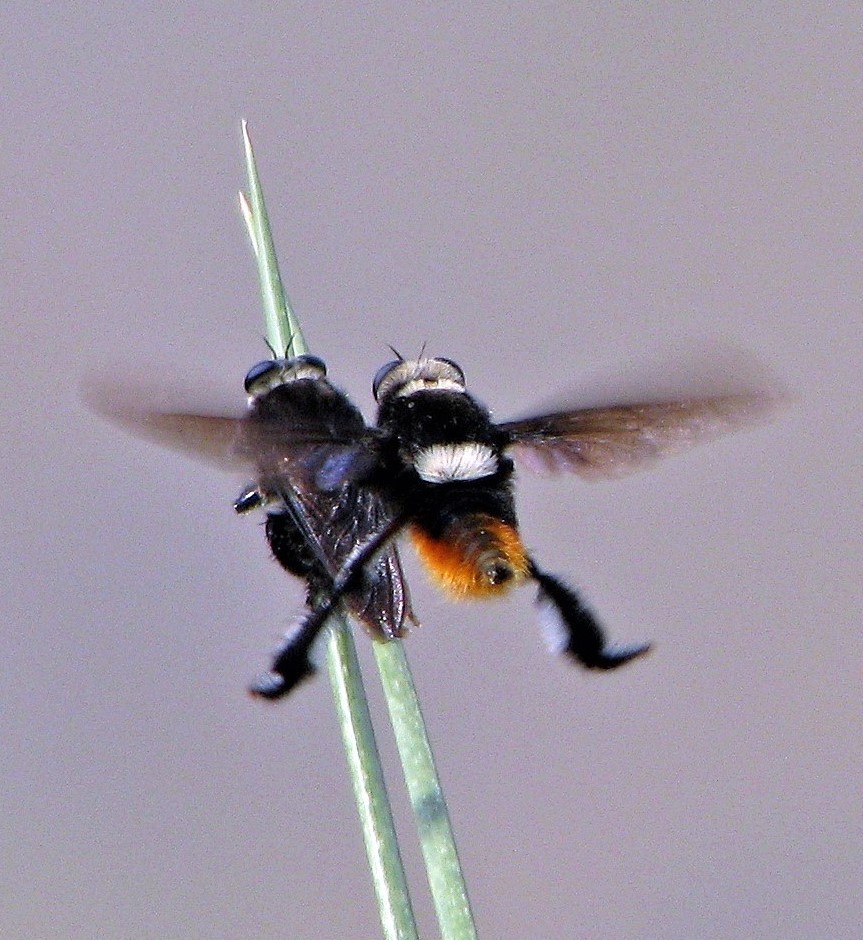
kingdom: Animalia
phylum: Arthropoda
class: Insecta
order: Diptera
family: Asilidae
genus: Mallophora
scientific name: Mallophora ruficauda
